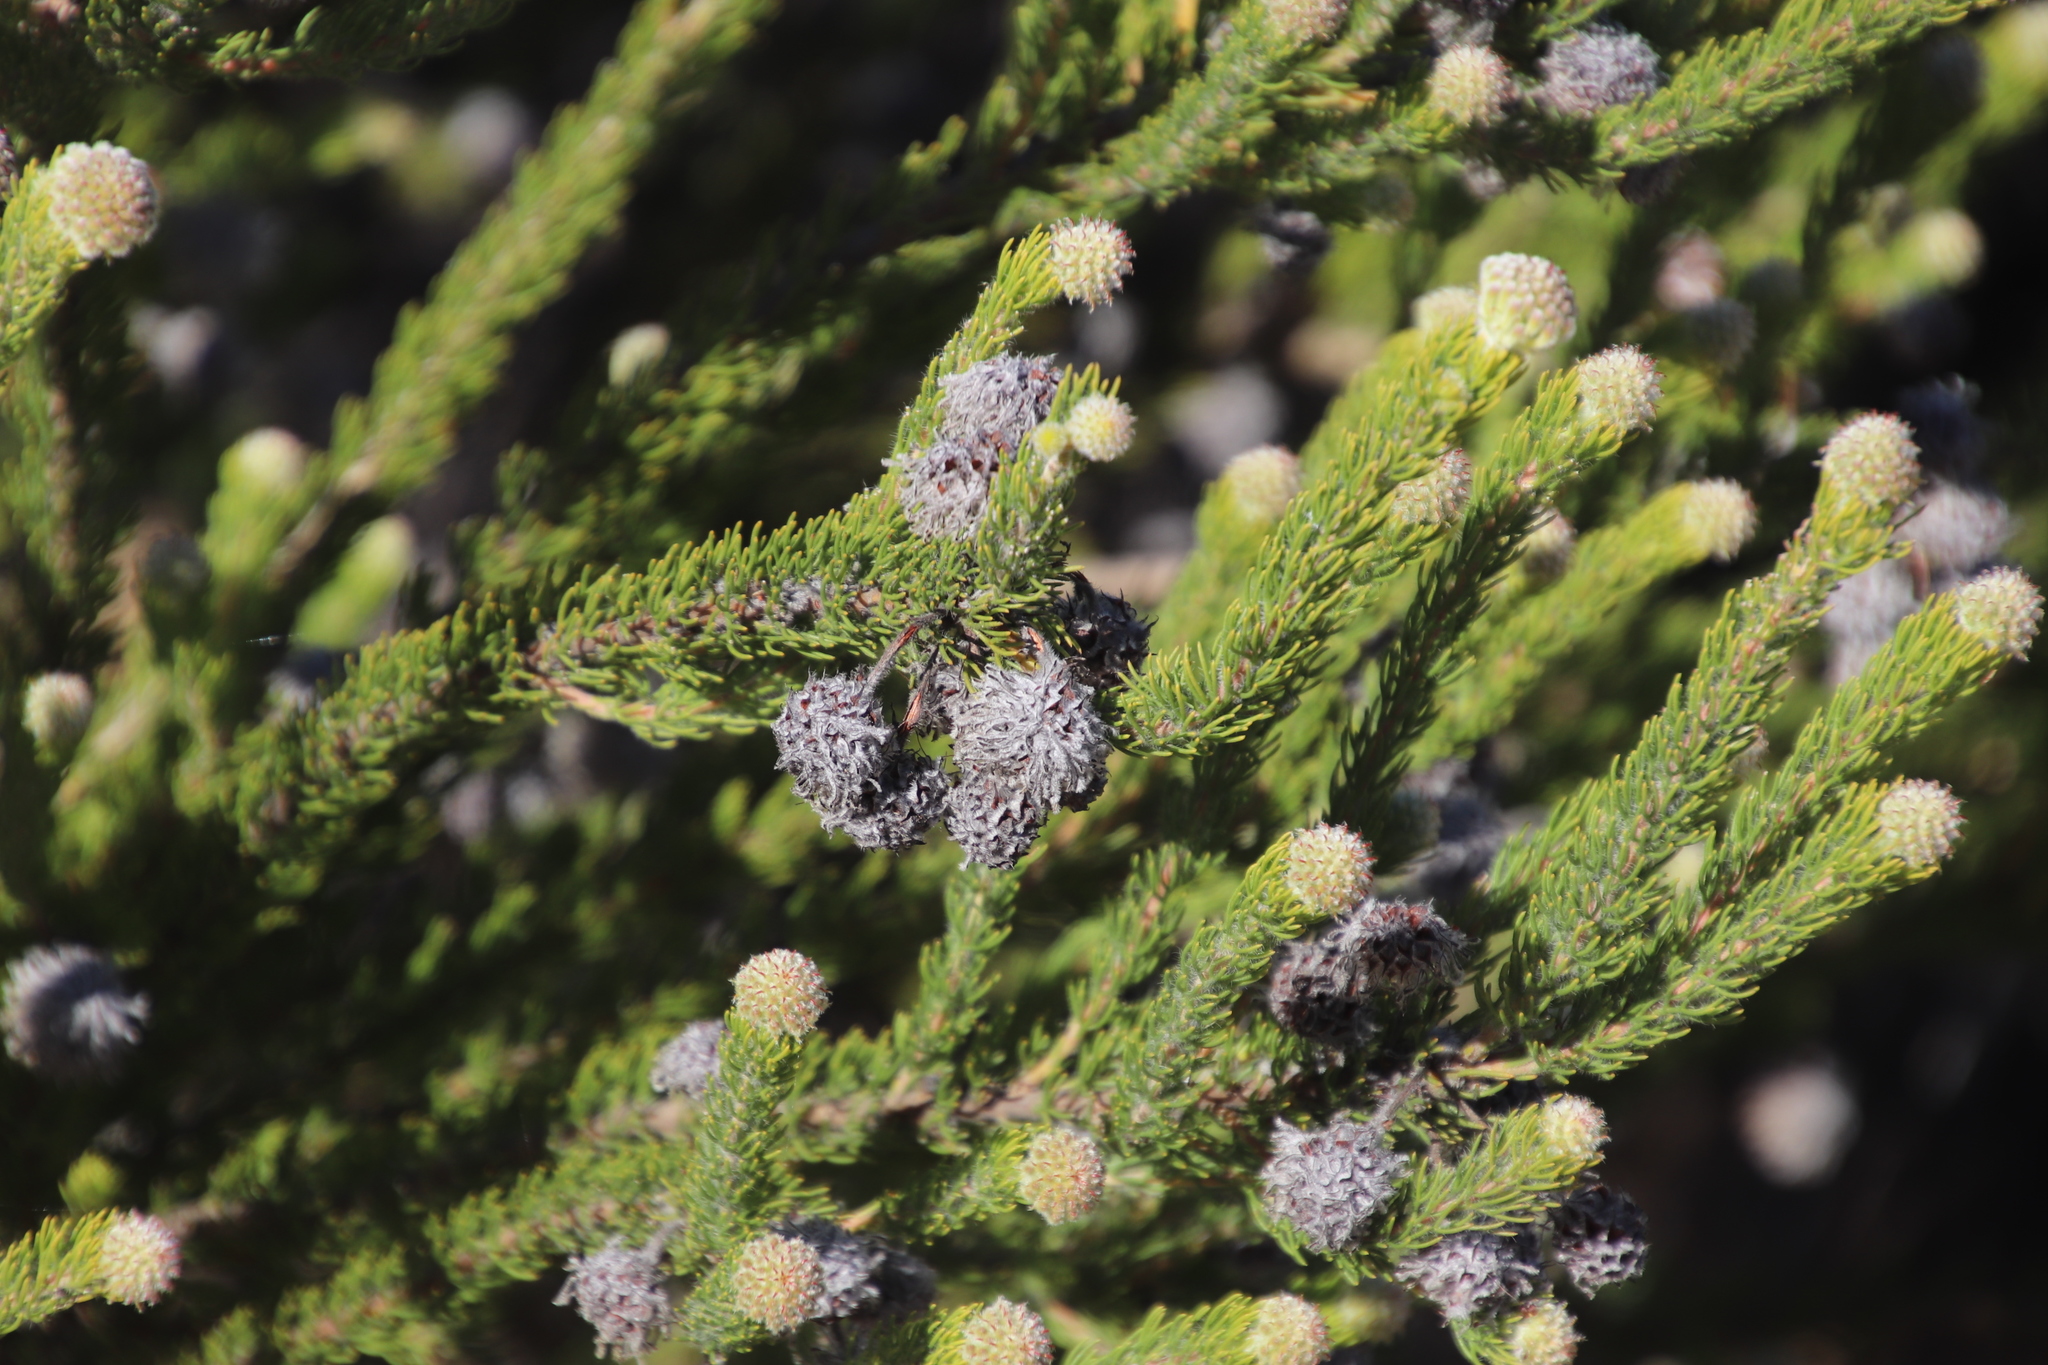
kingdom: Plantae
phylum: Tracheophyta
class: Magnoliopsida
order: Proteales
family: Proteaceae
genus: Serruria
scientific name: Serruria millefolia
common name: Millileaf spiderhead
